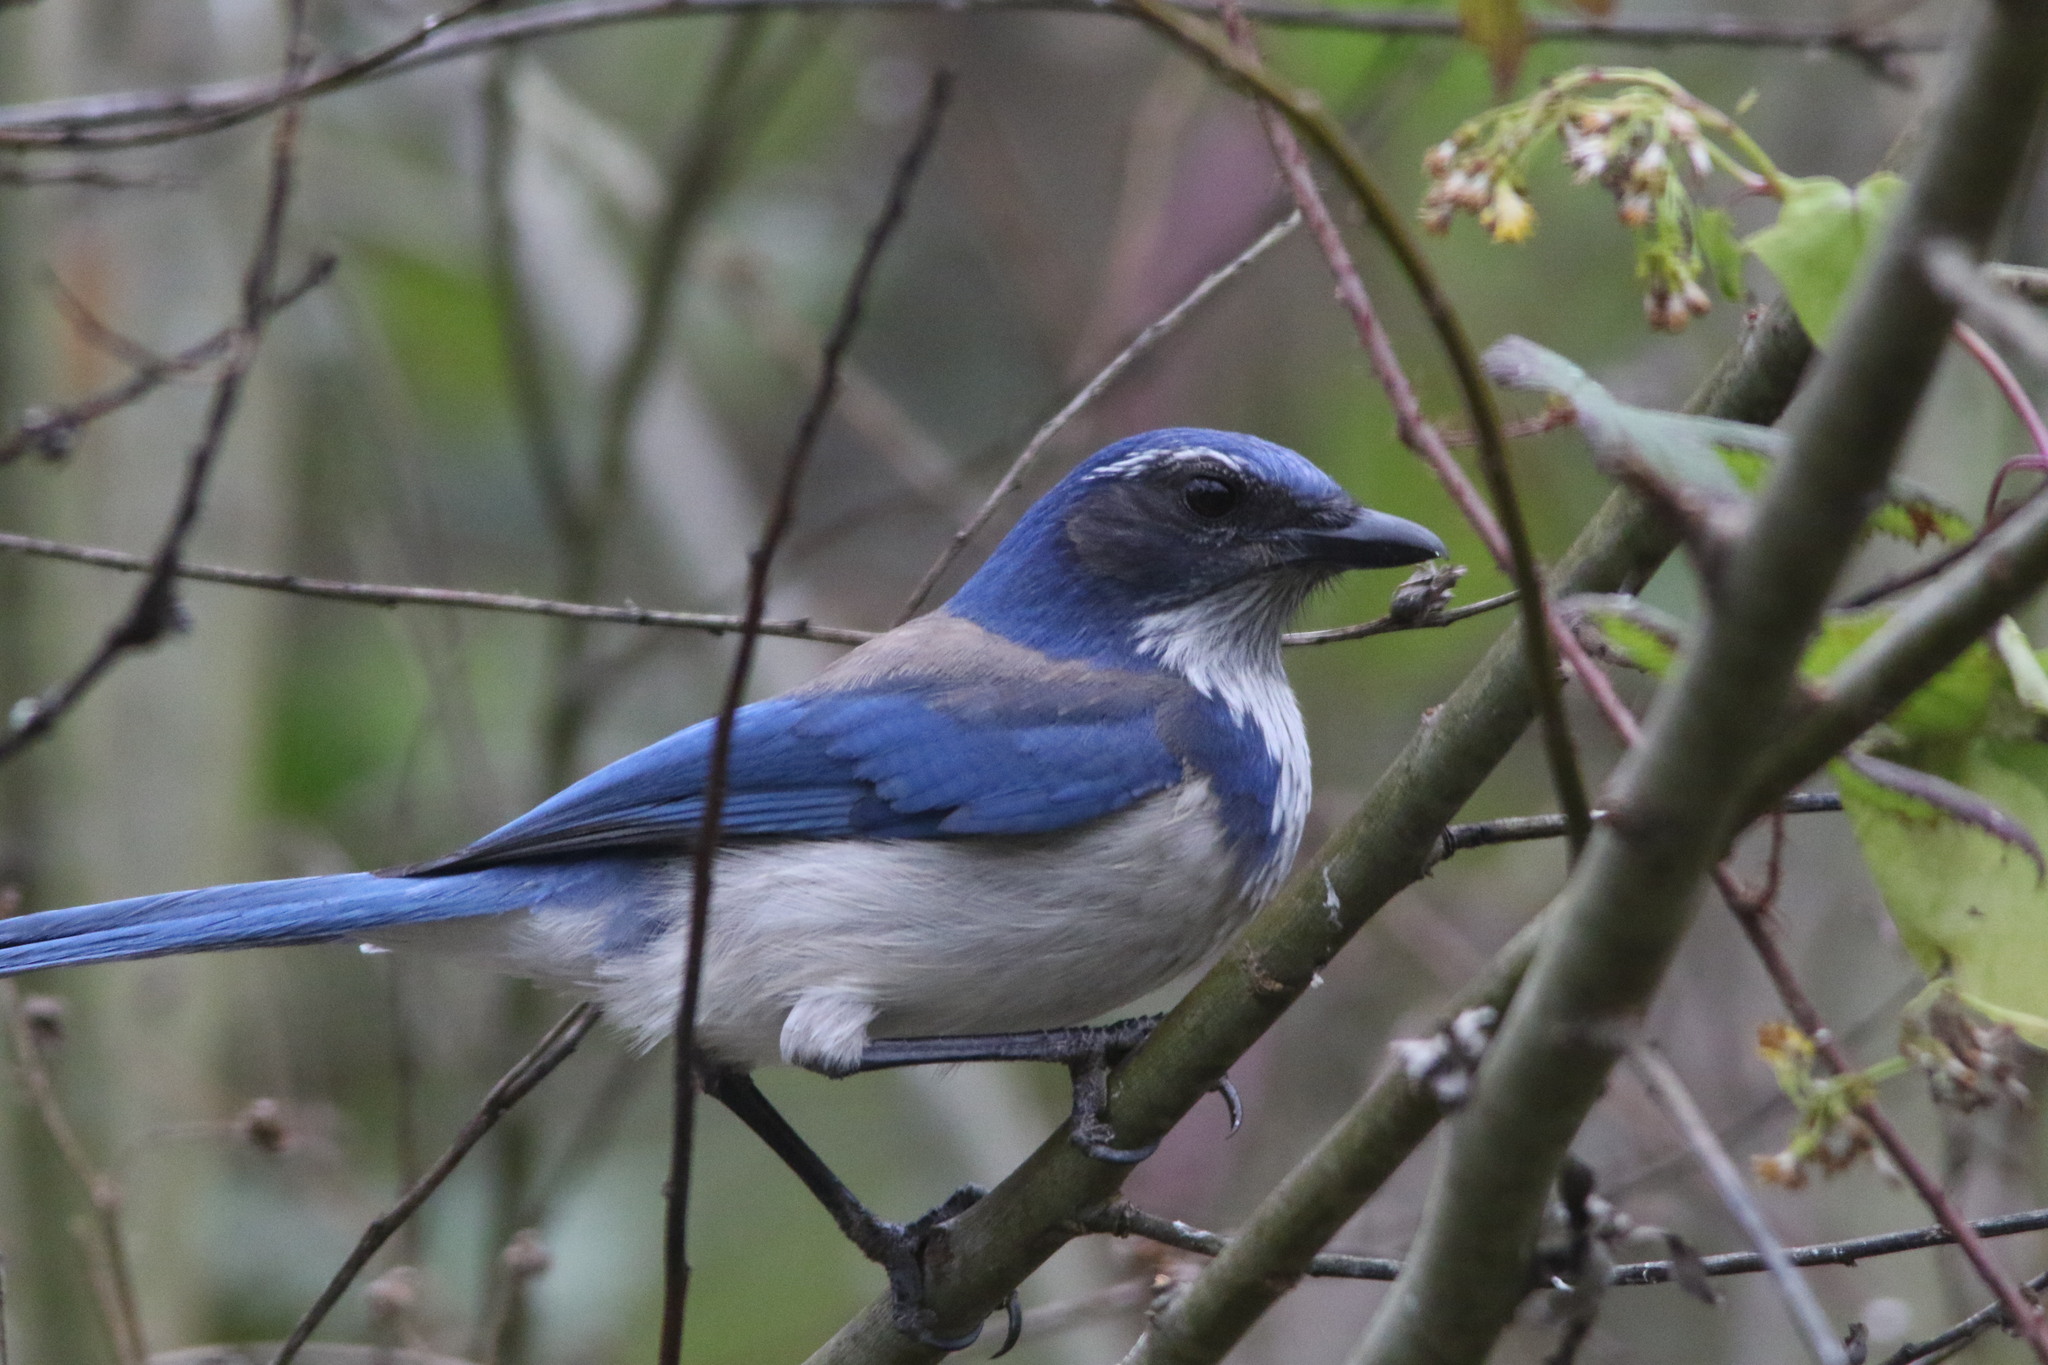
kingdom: Animalia
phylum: Chordata
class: Aves
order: Passeriformes
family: Corvidae
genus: Aphelocoma
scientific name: Aphelocoma californica
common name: California scrub-jay
